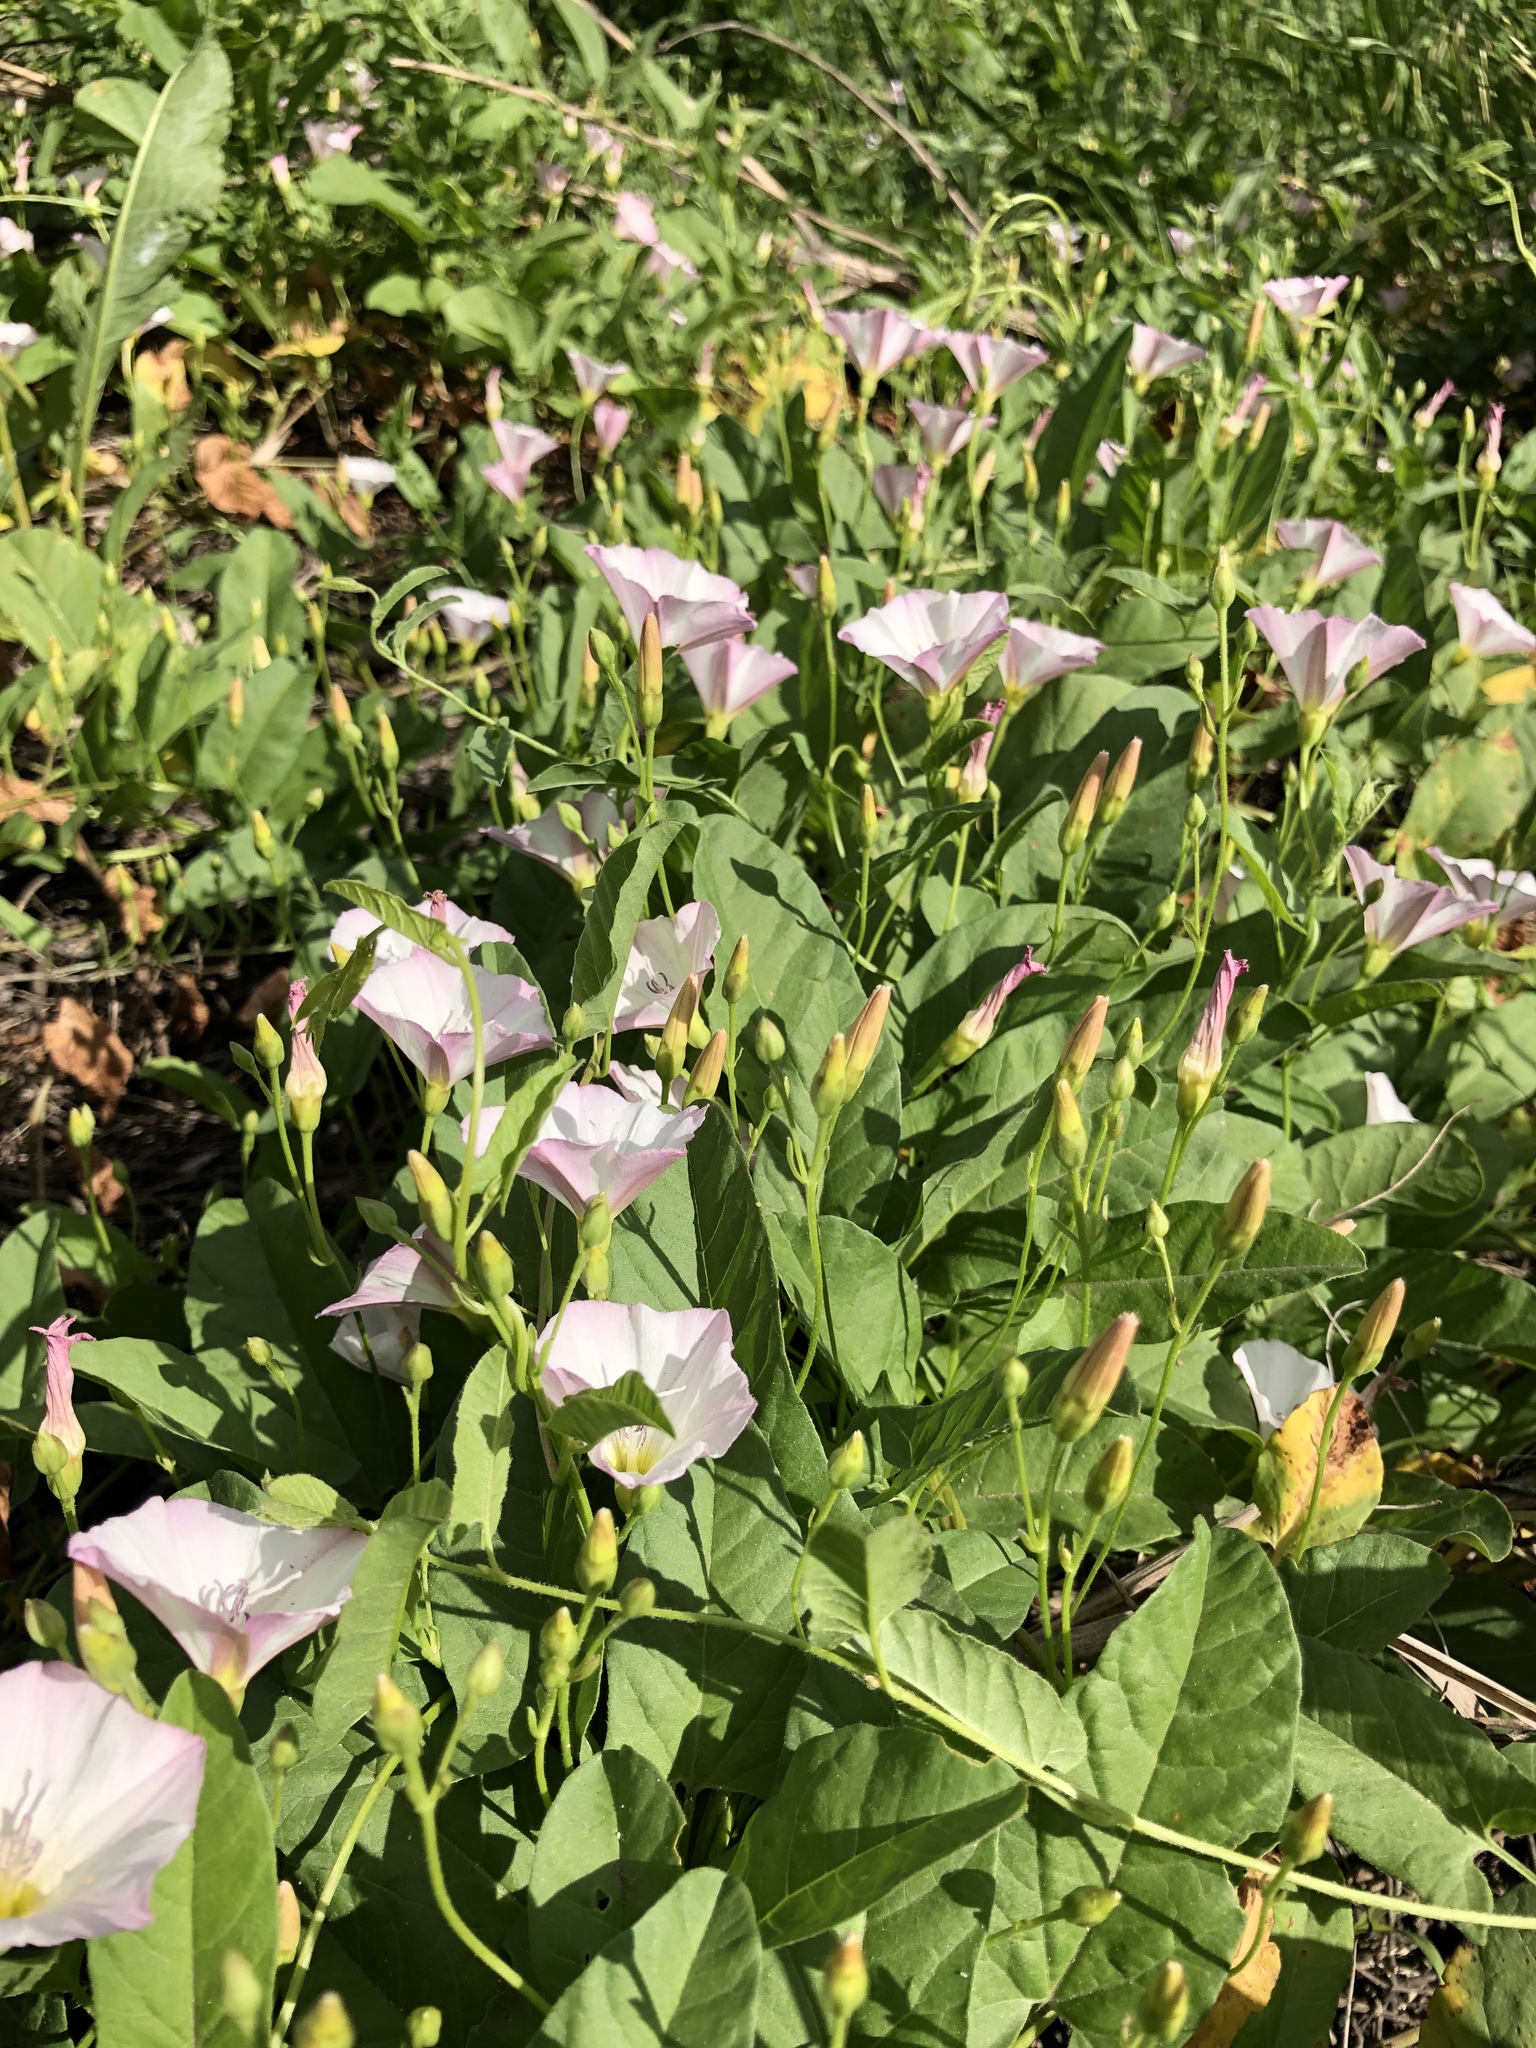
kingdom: Plantae
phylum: Tracheophyta
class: Magnoliopsida
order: Solanales
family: Convolvulaceae
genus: Convolvulus
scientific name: Convolvulus arvensis
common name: Field bindweed
